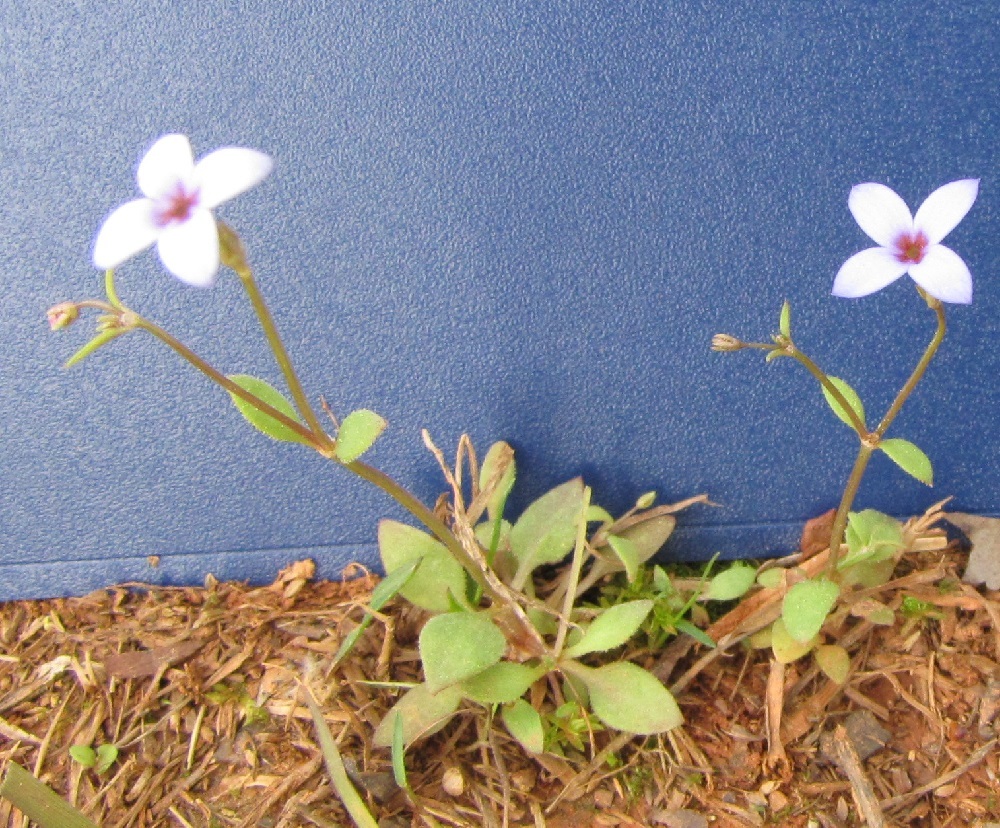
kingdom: Plantae
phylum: Tracheophyta
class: Magnoliopsida
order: Gentianales
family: Rubiaceae
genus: Houstonia
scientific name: Houstonia pusilla
